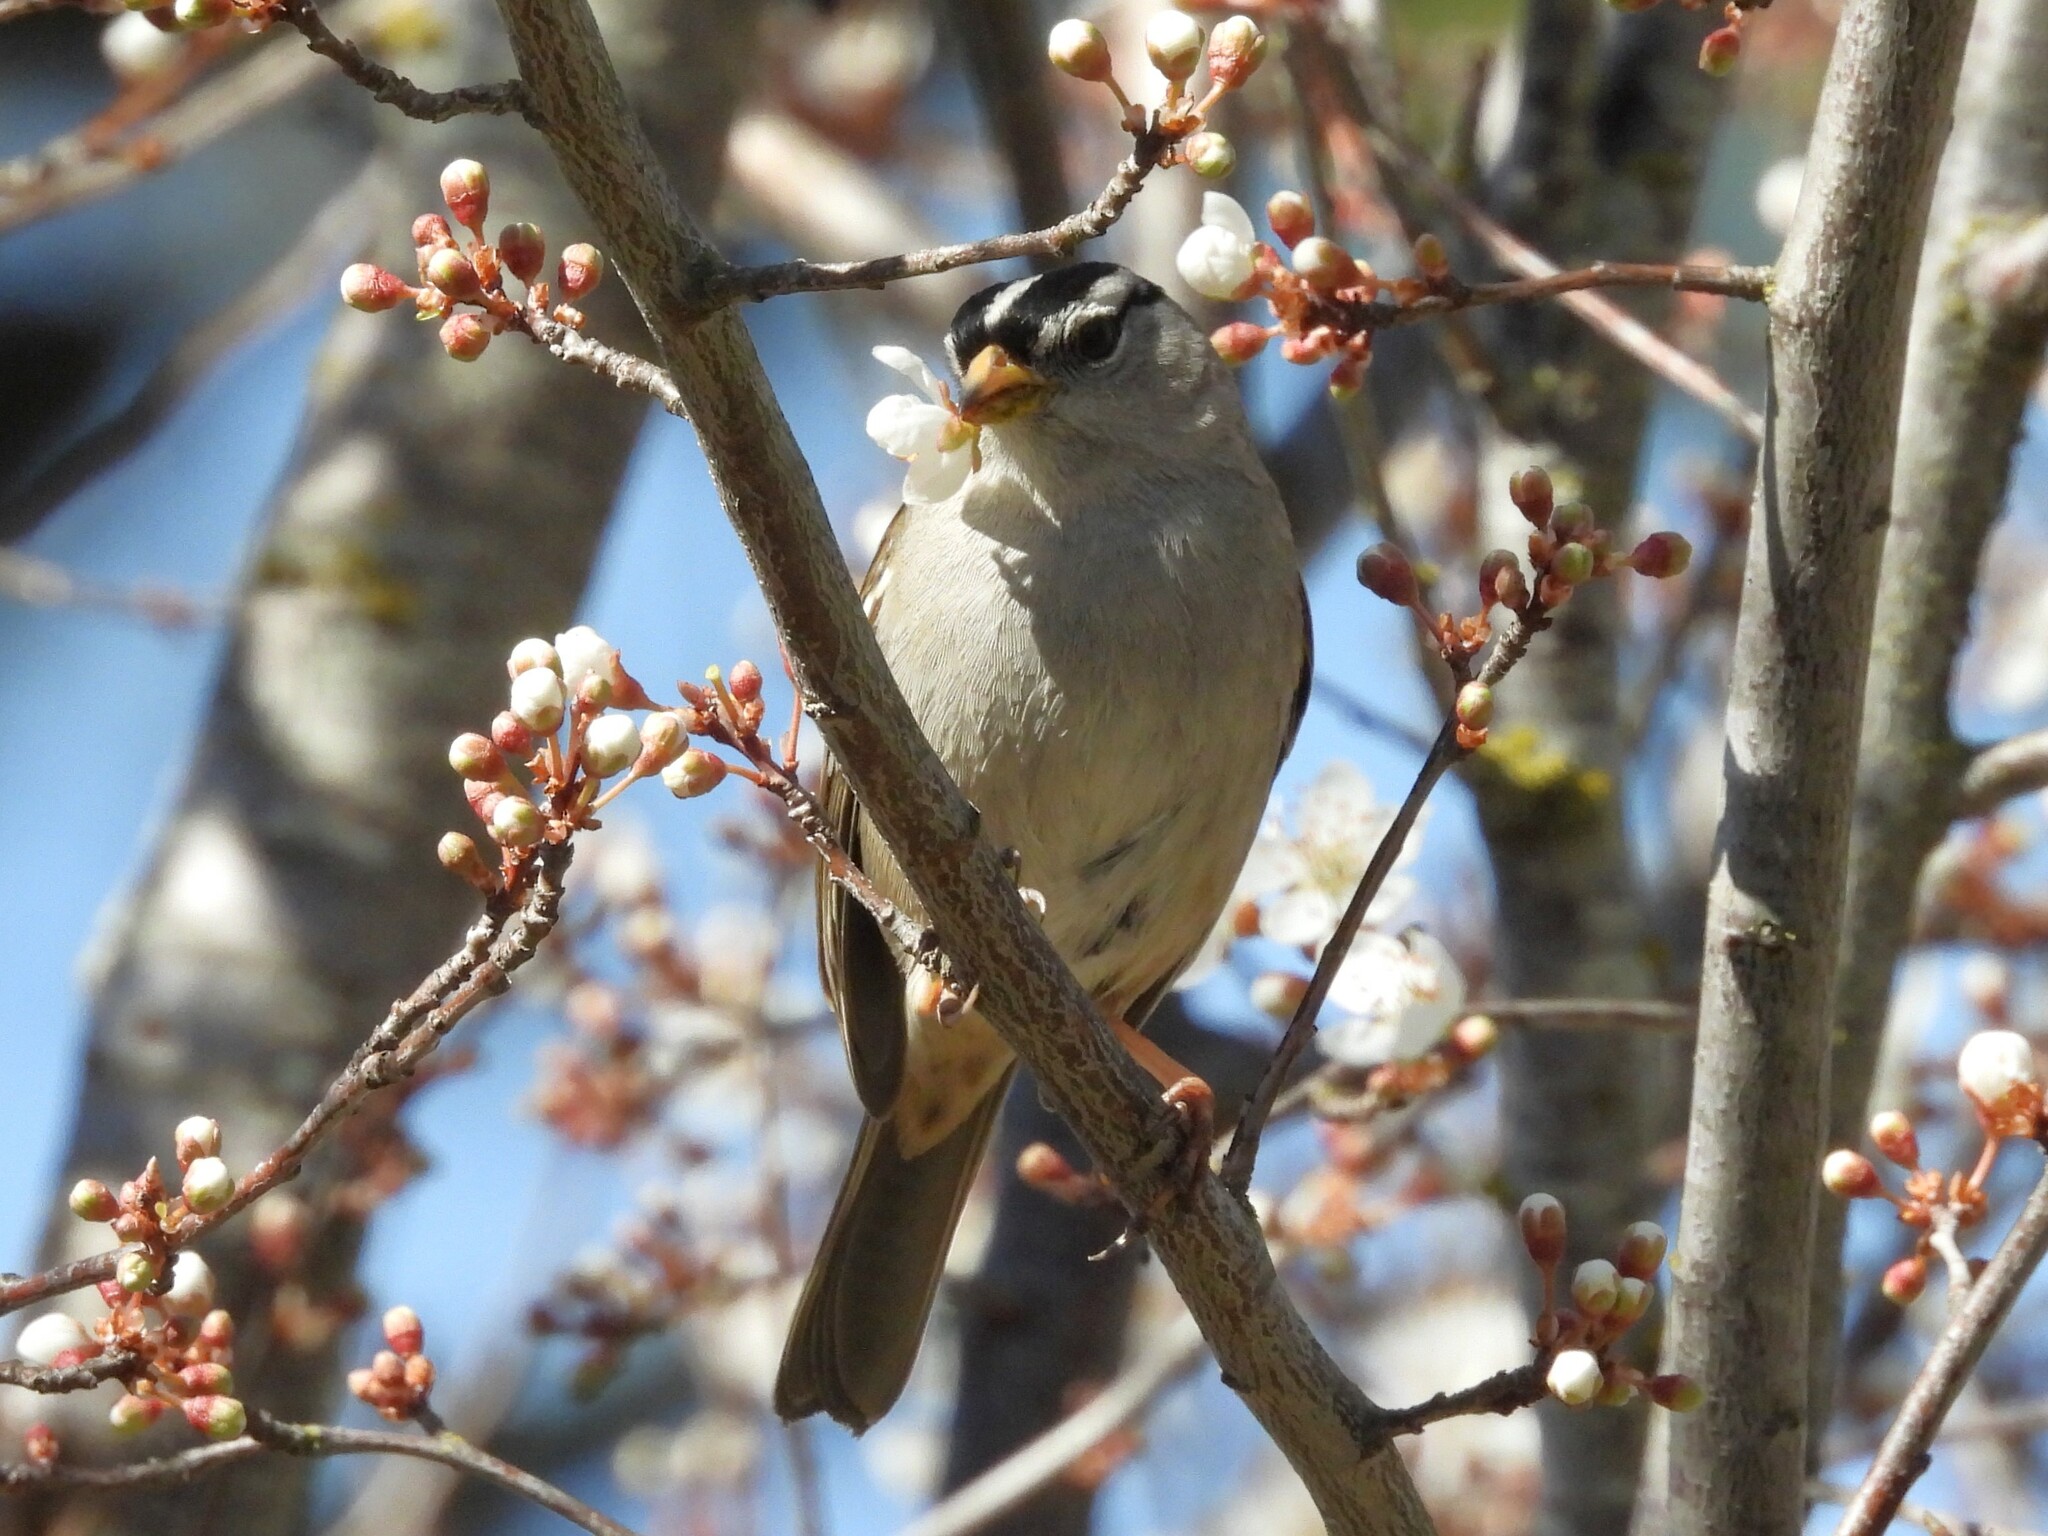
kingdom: Animalia
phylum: Chordata
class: Aves
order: Passeriformes
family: Passerellidae
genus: Zonotrichia
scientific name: Zonotrichia leucophrys
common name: White-crowned sparrow
